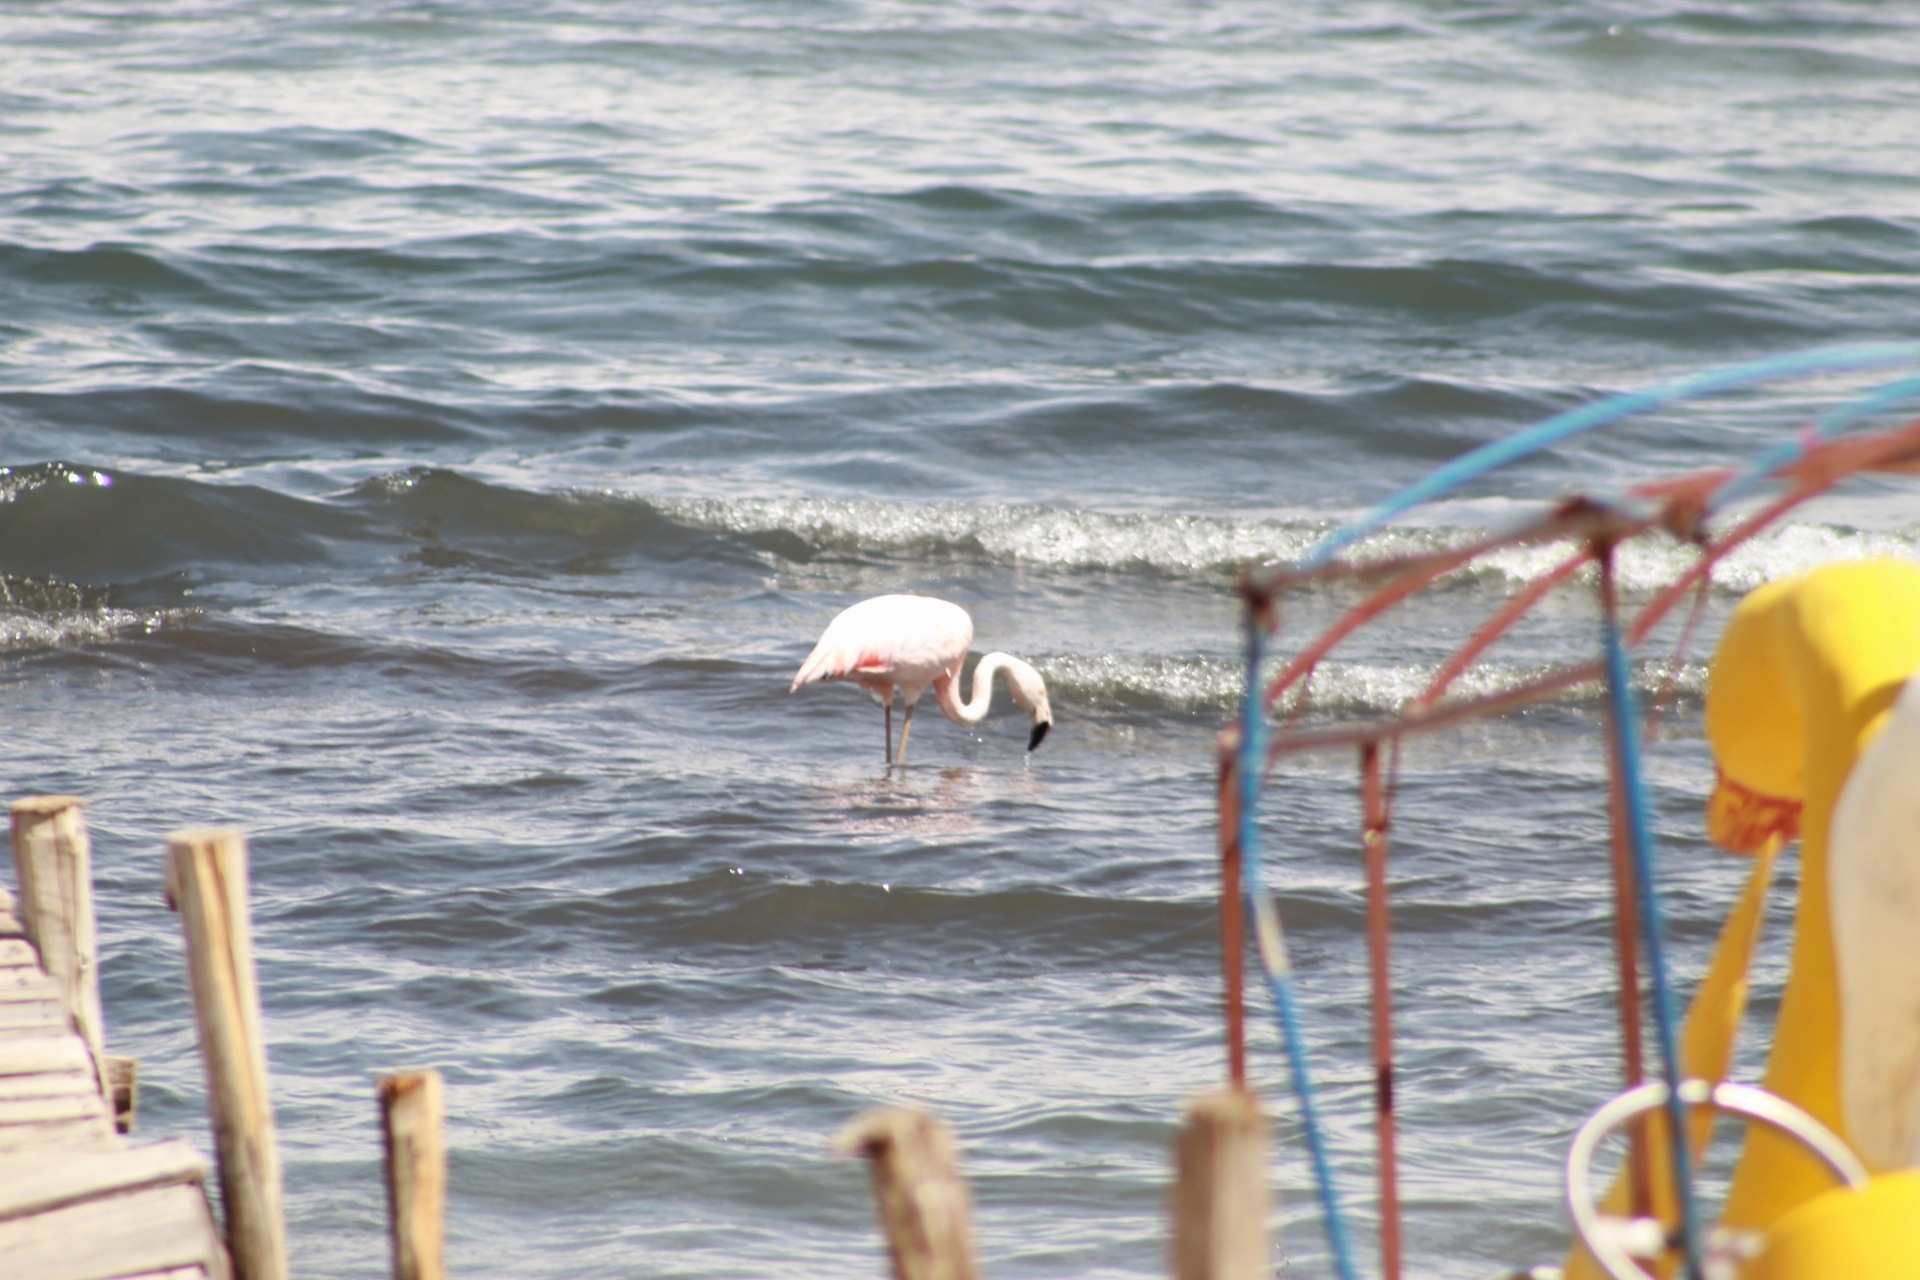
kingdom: Animalia
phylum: Chordata
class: Aves
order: Phoenicopteriformes
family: Phoenicopteridae
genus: Phoenicopterus
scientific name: Phoenicopterus chilensis
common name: Chilean flamingo
